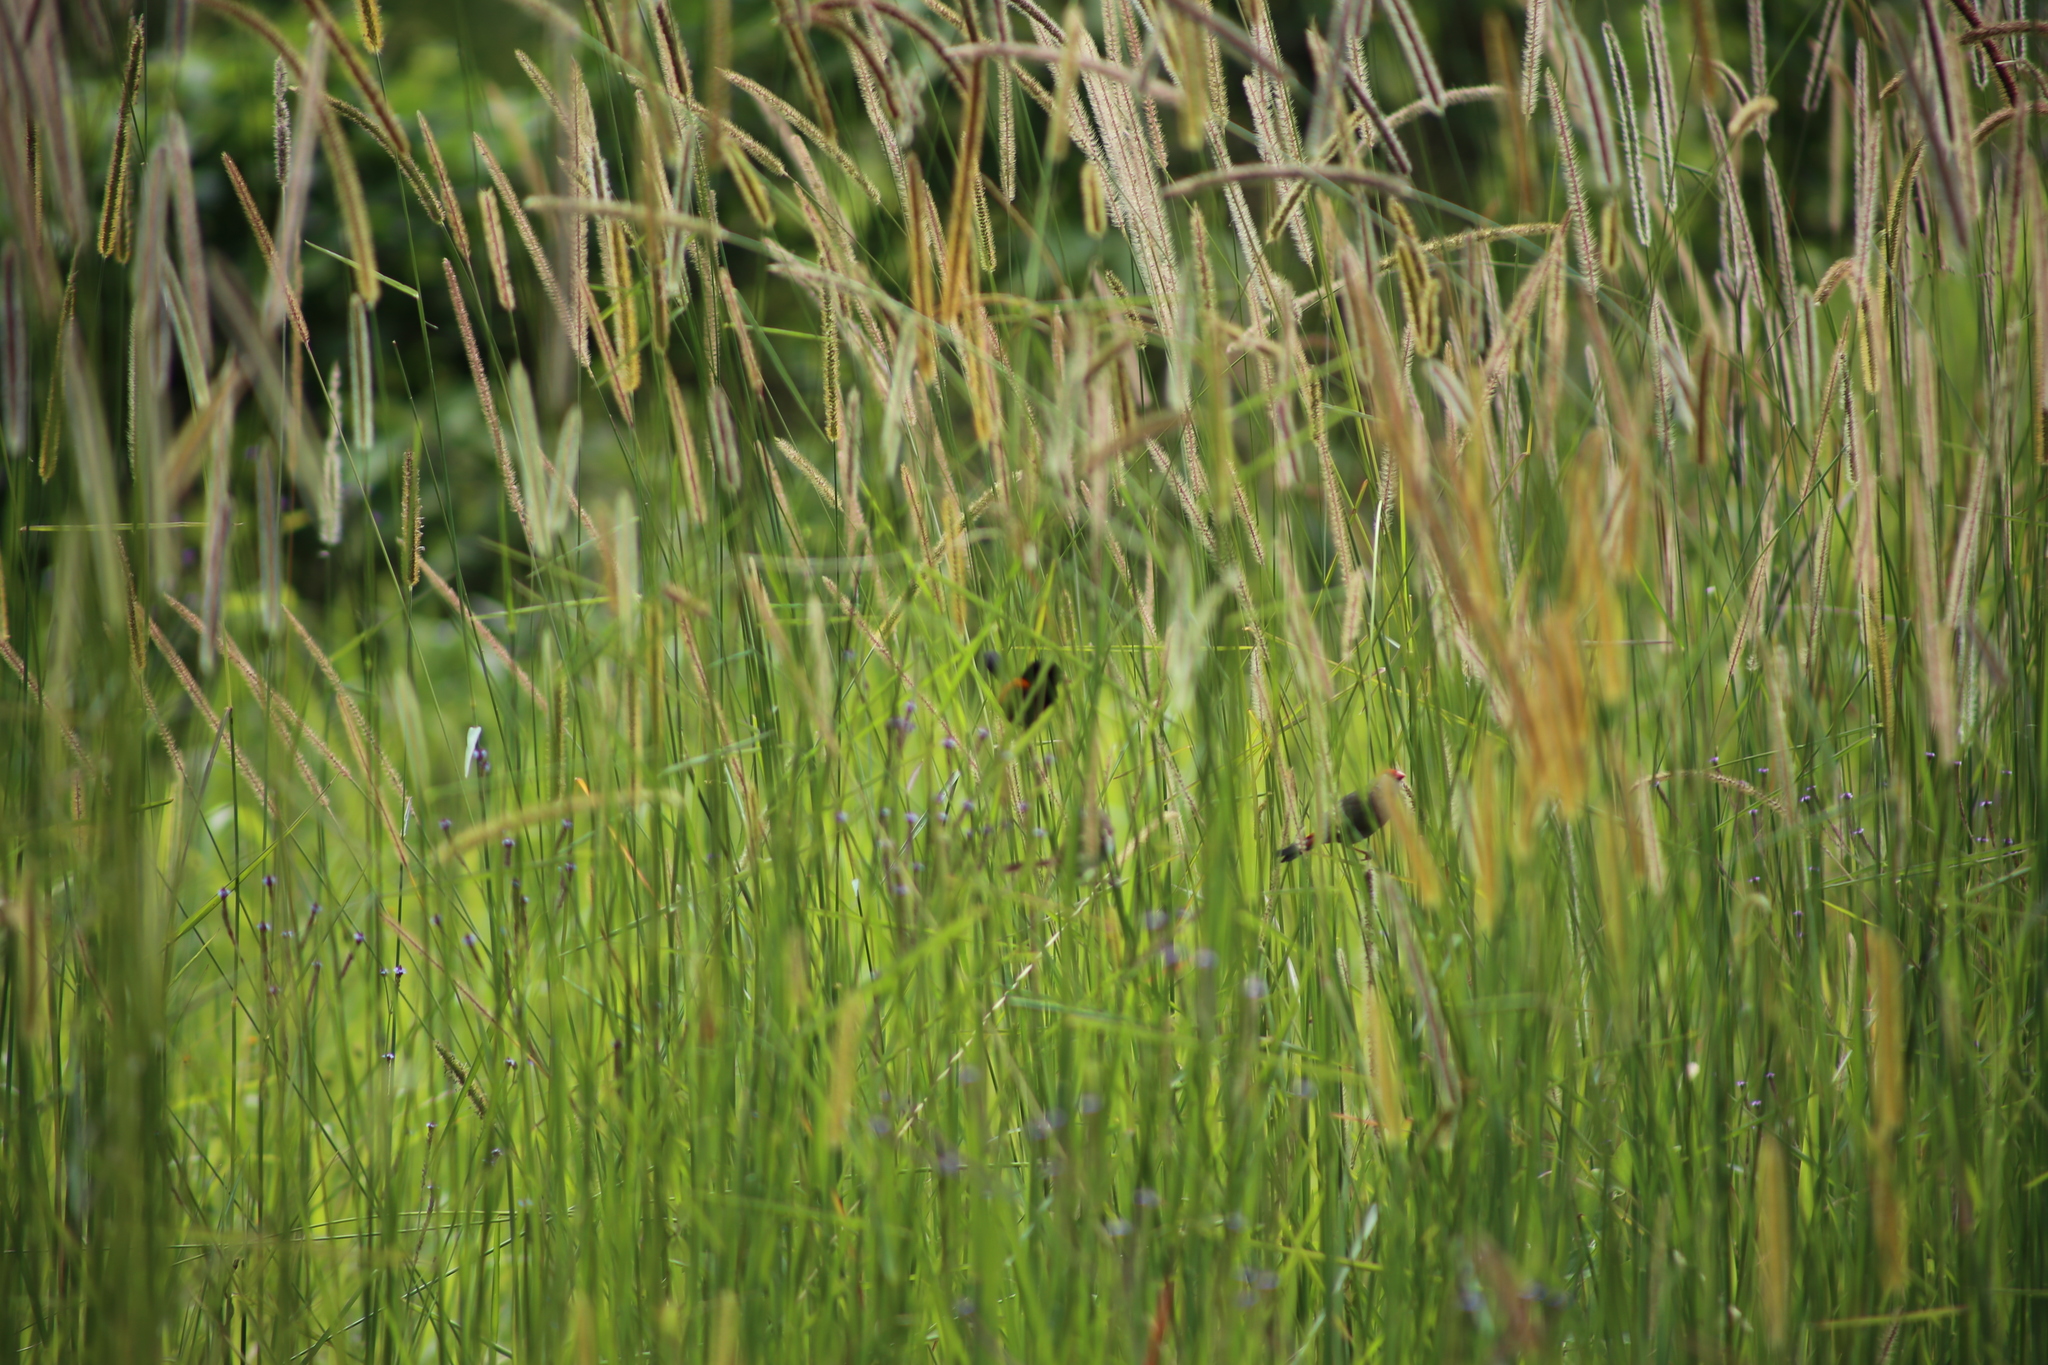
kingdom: Animalia
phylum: Chordata
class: Aves
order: Passeriformes
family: Estrildidae
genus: Neochmia
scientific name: Neochmia temporalis
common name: Red-browed finch
